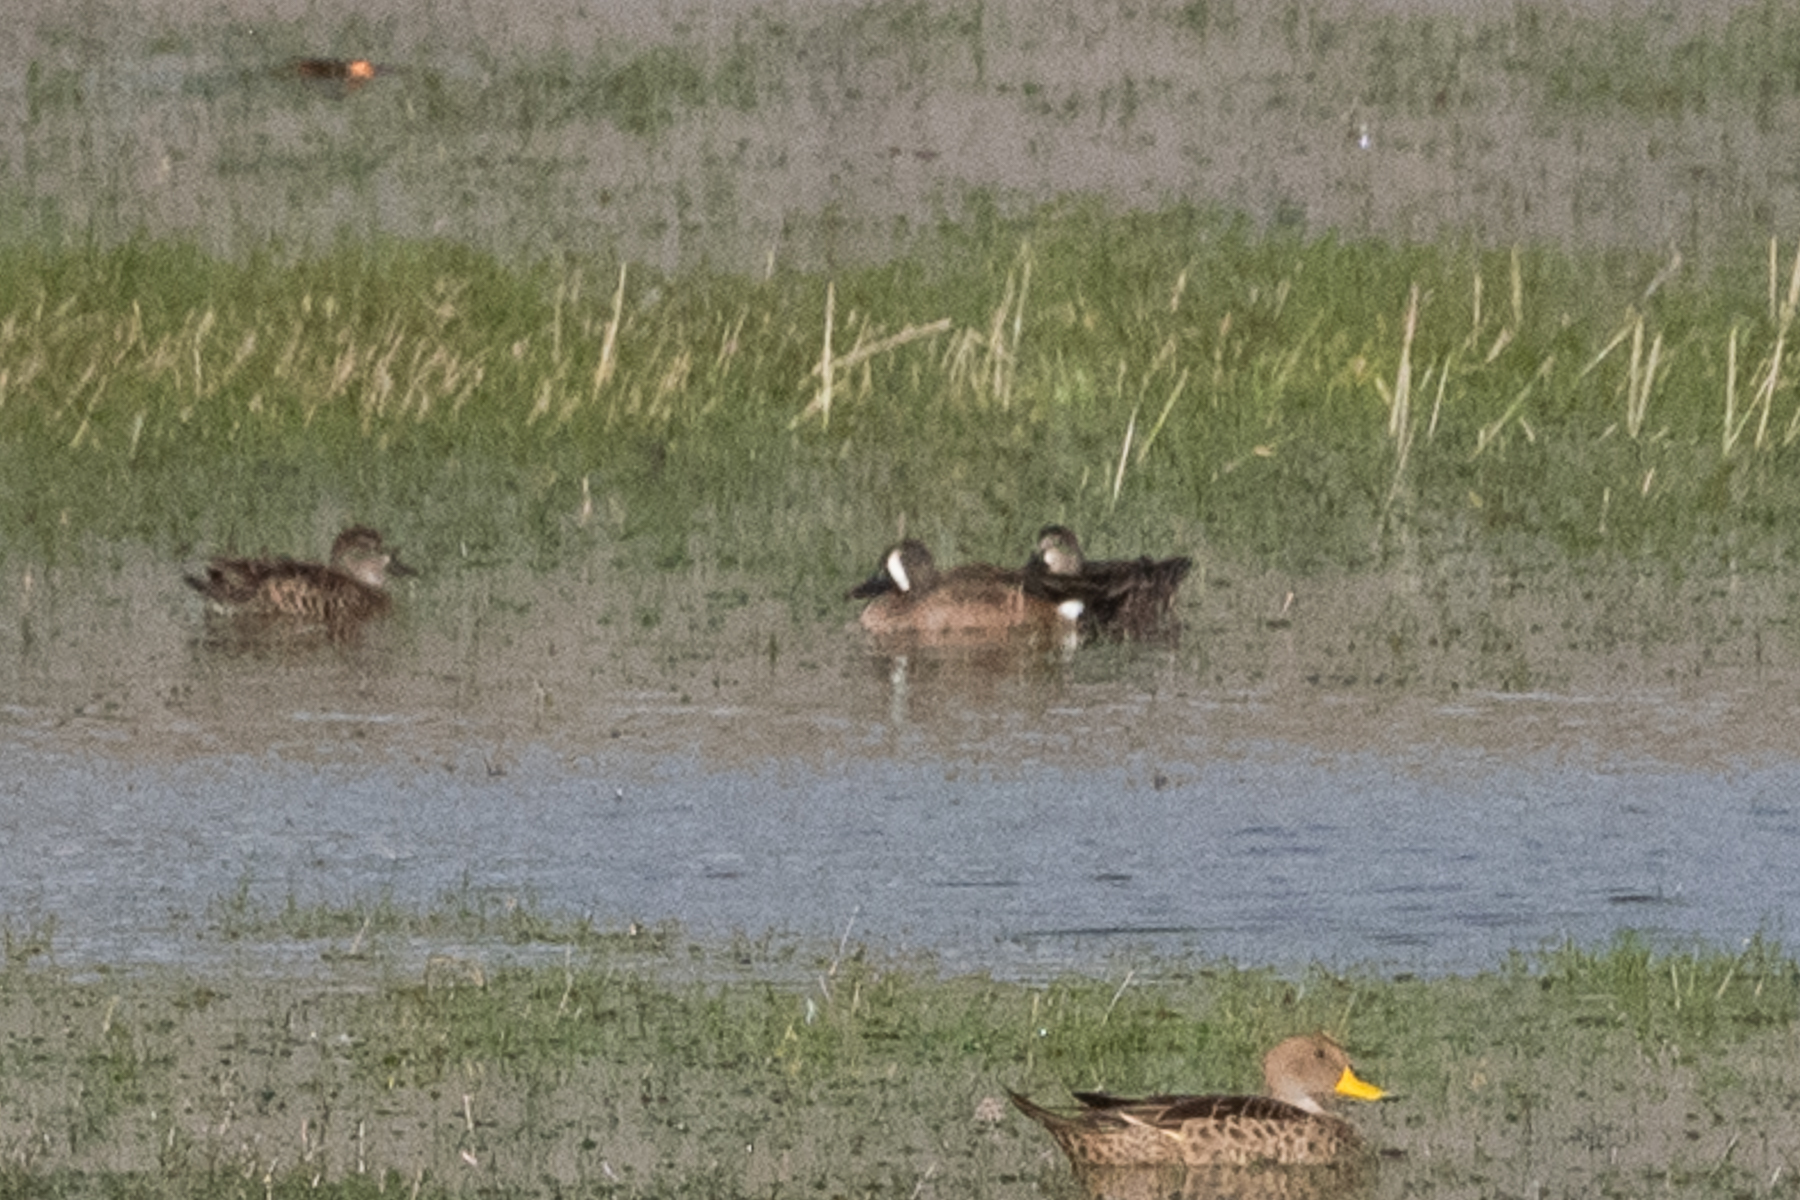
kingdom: Animalia
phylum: Chordata
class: Aves
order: Anseriformes
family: Anatidae
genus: Spatula
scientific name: Spatula discors
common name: Blue-winged teal
